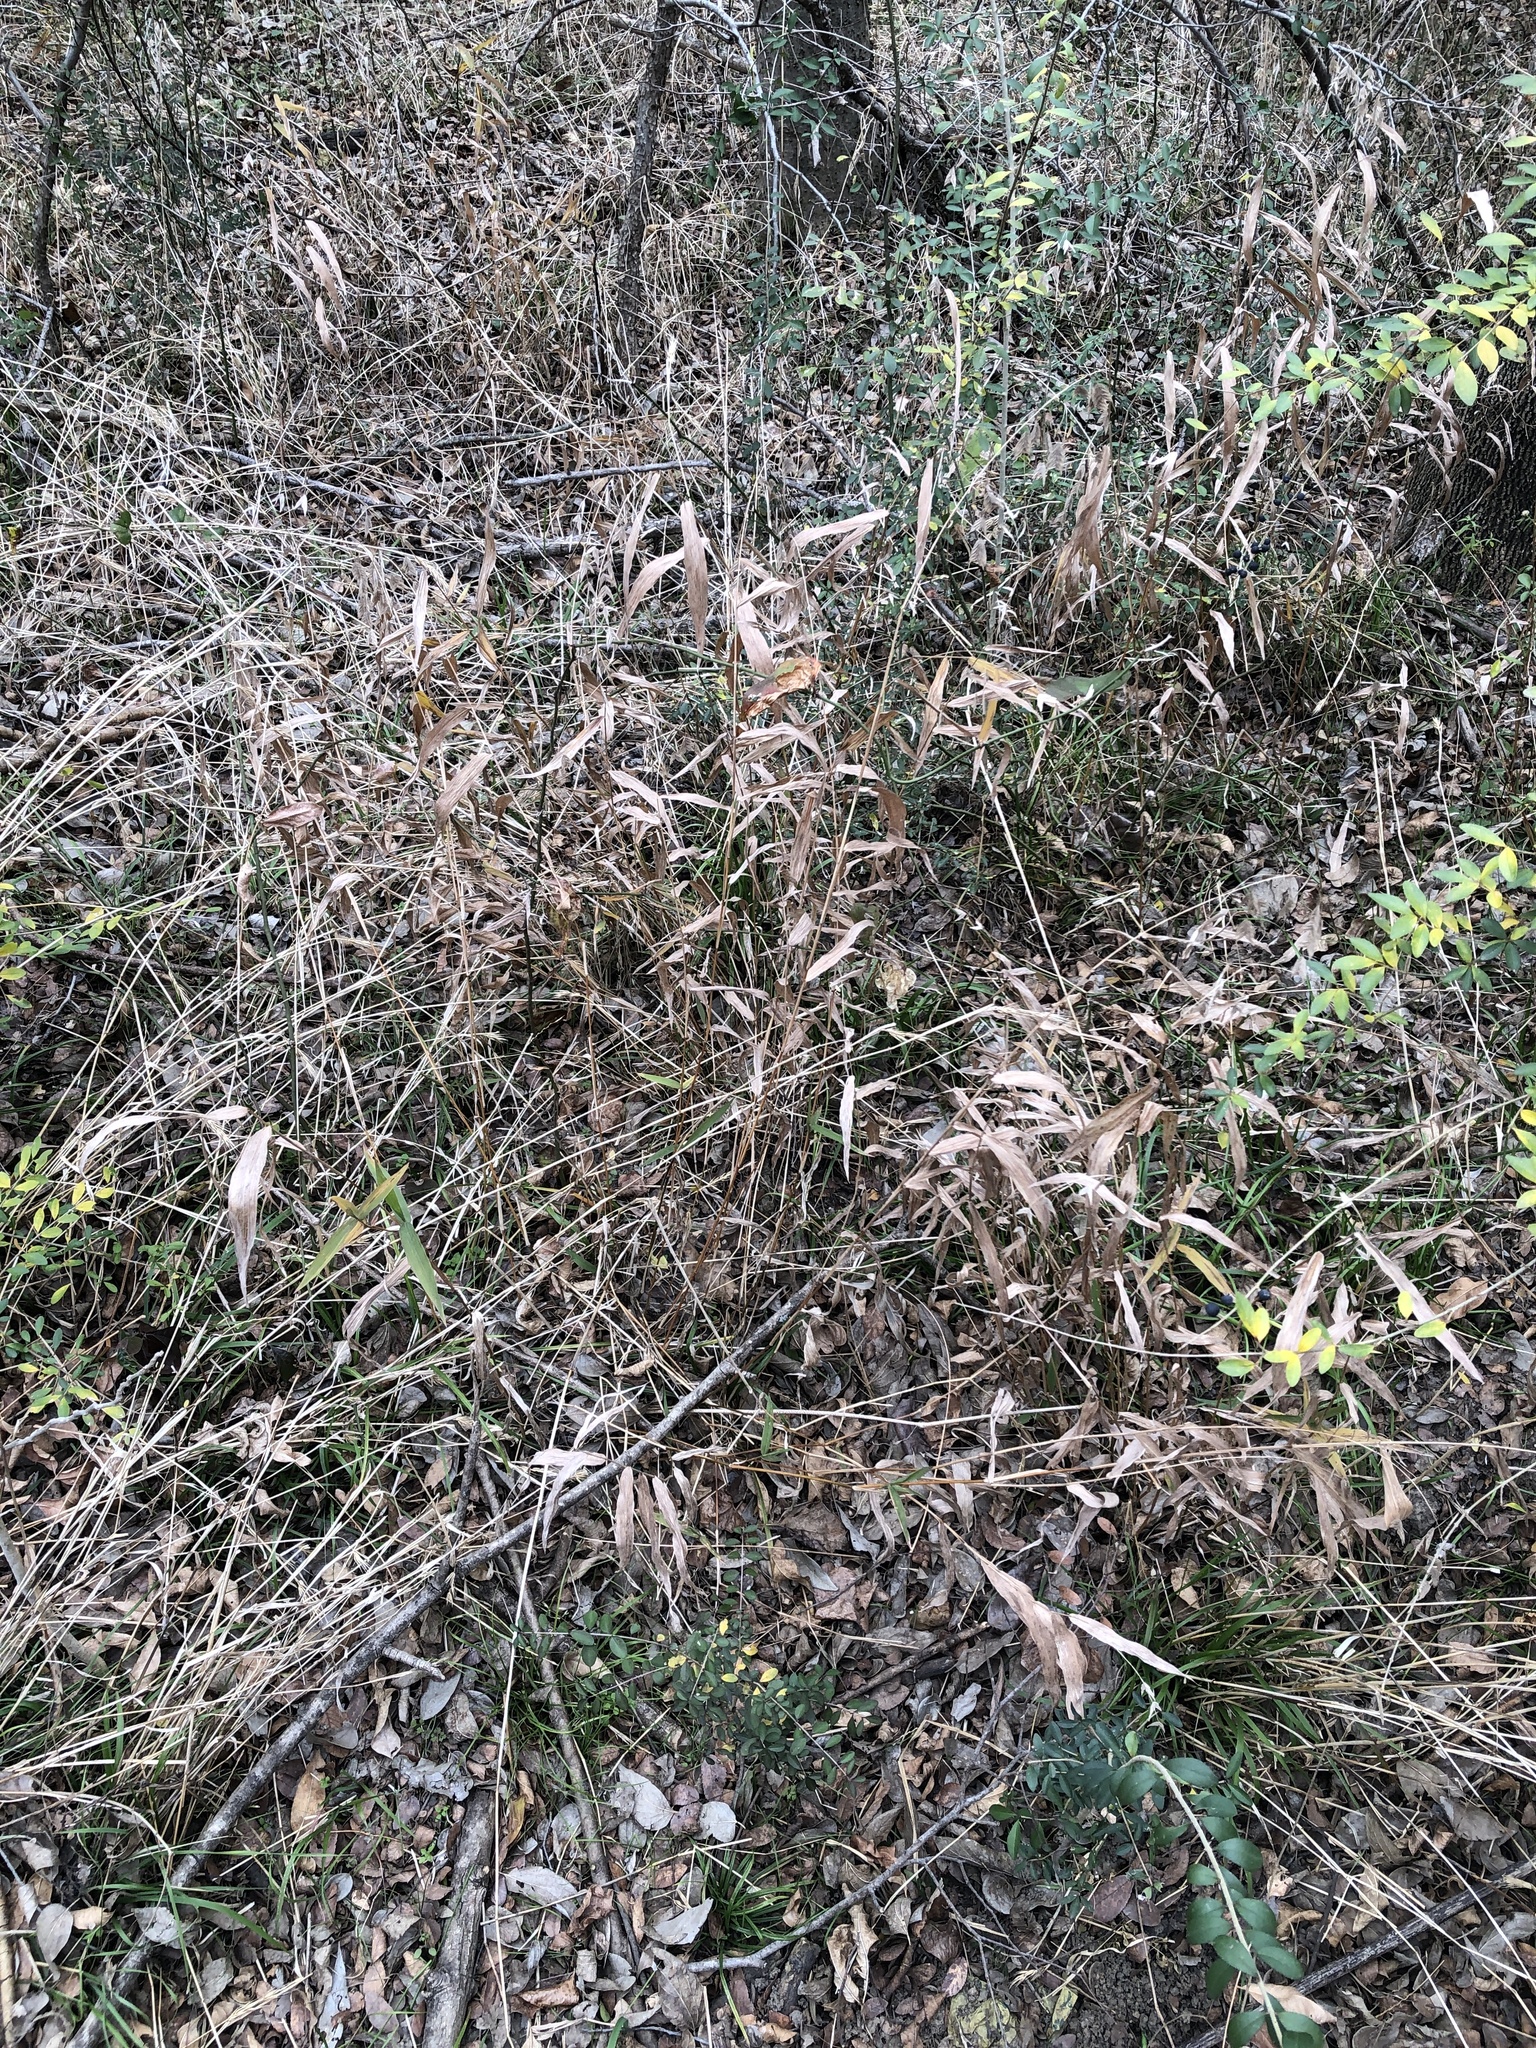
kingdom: Plantae
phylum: Tracheophyta
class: Liliopsida
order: Poales
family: Poaceae
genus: Chasmanthium
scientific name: Chasmanthium latifolium
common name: Broad-leaved chasmanthium
